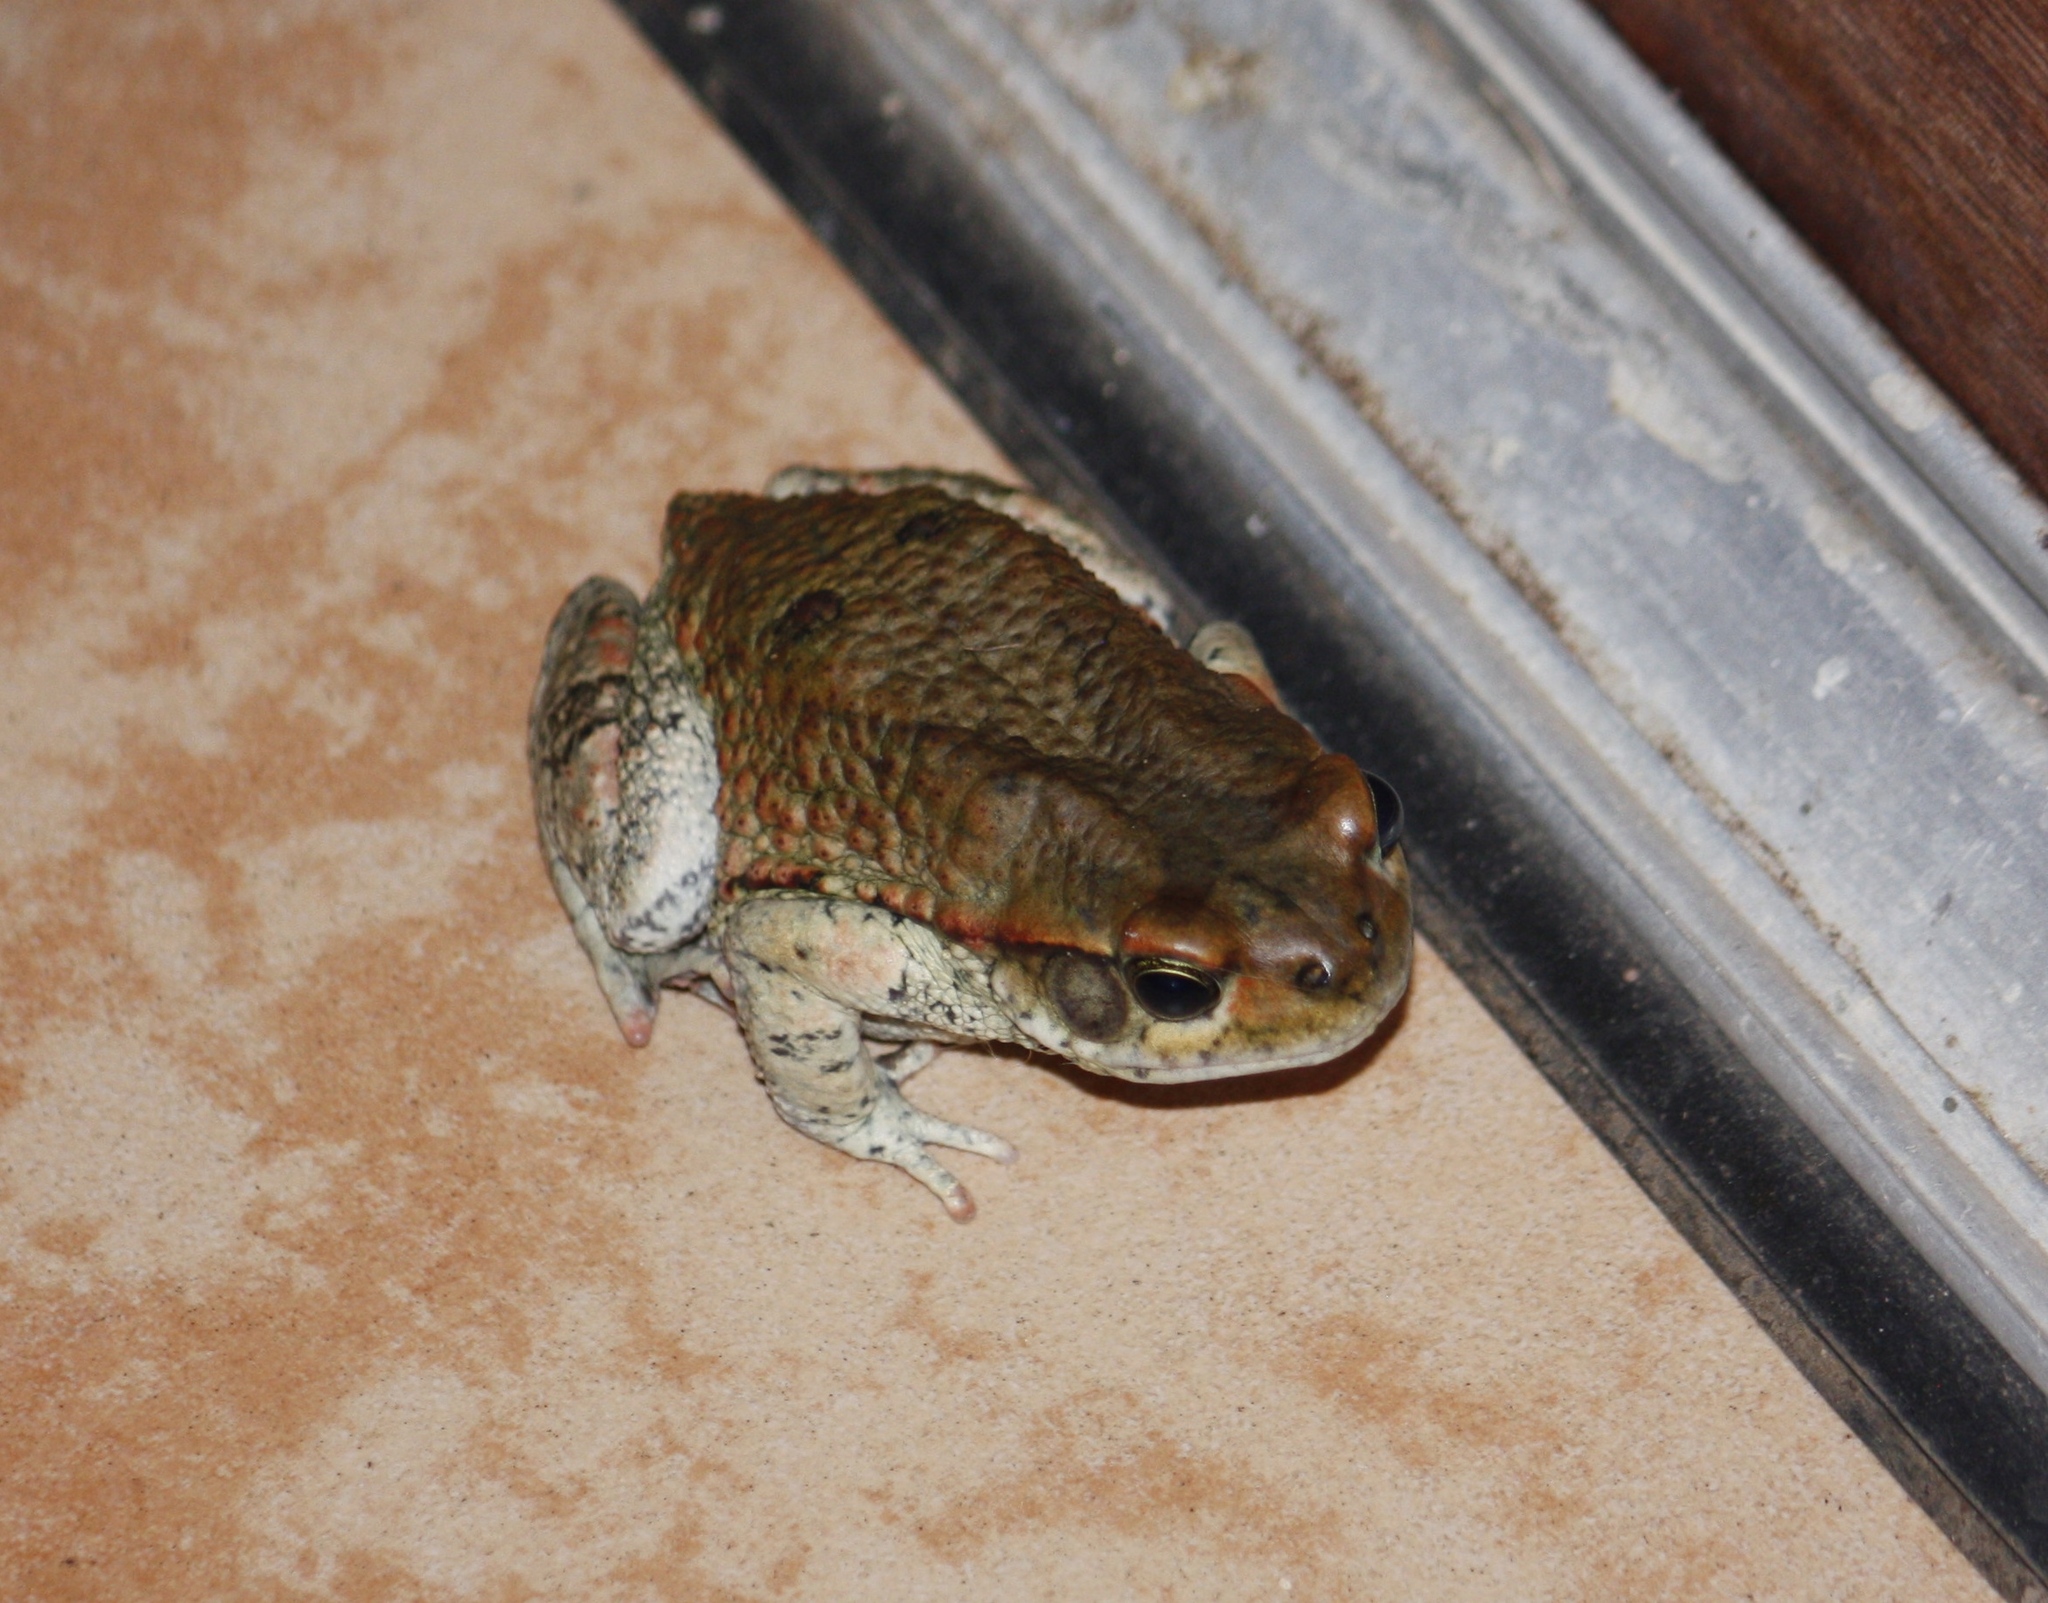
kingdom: Animalia
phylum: Chordata
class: Amphibia
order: Anura
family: Bufonidae
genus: Schismaderma
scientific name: Schismaderma carens
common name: African split-skin toad
